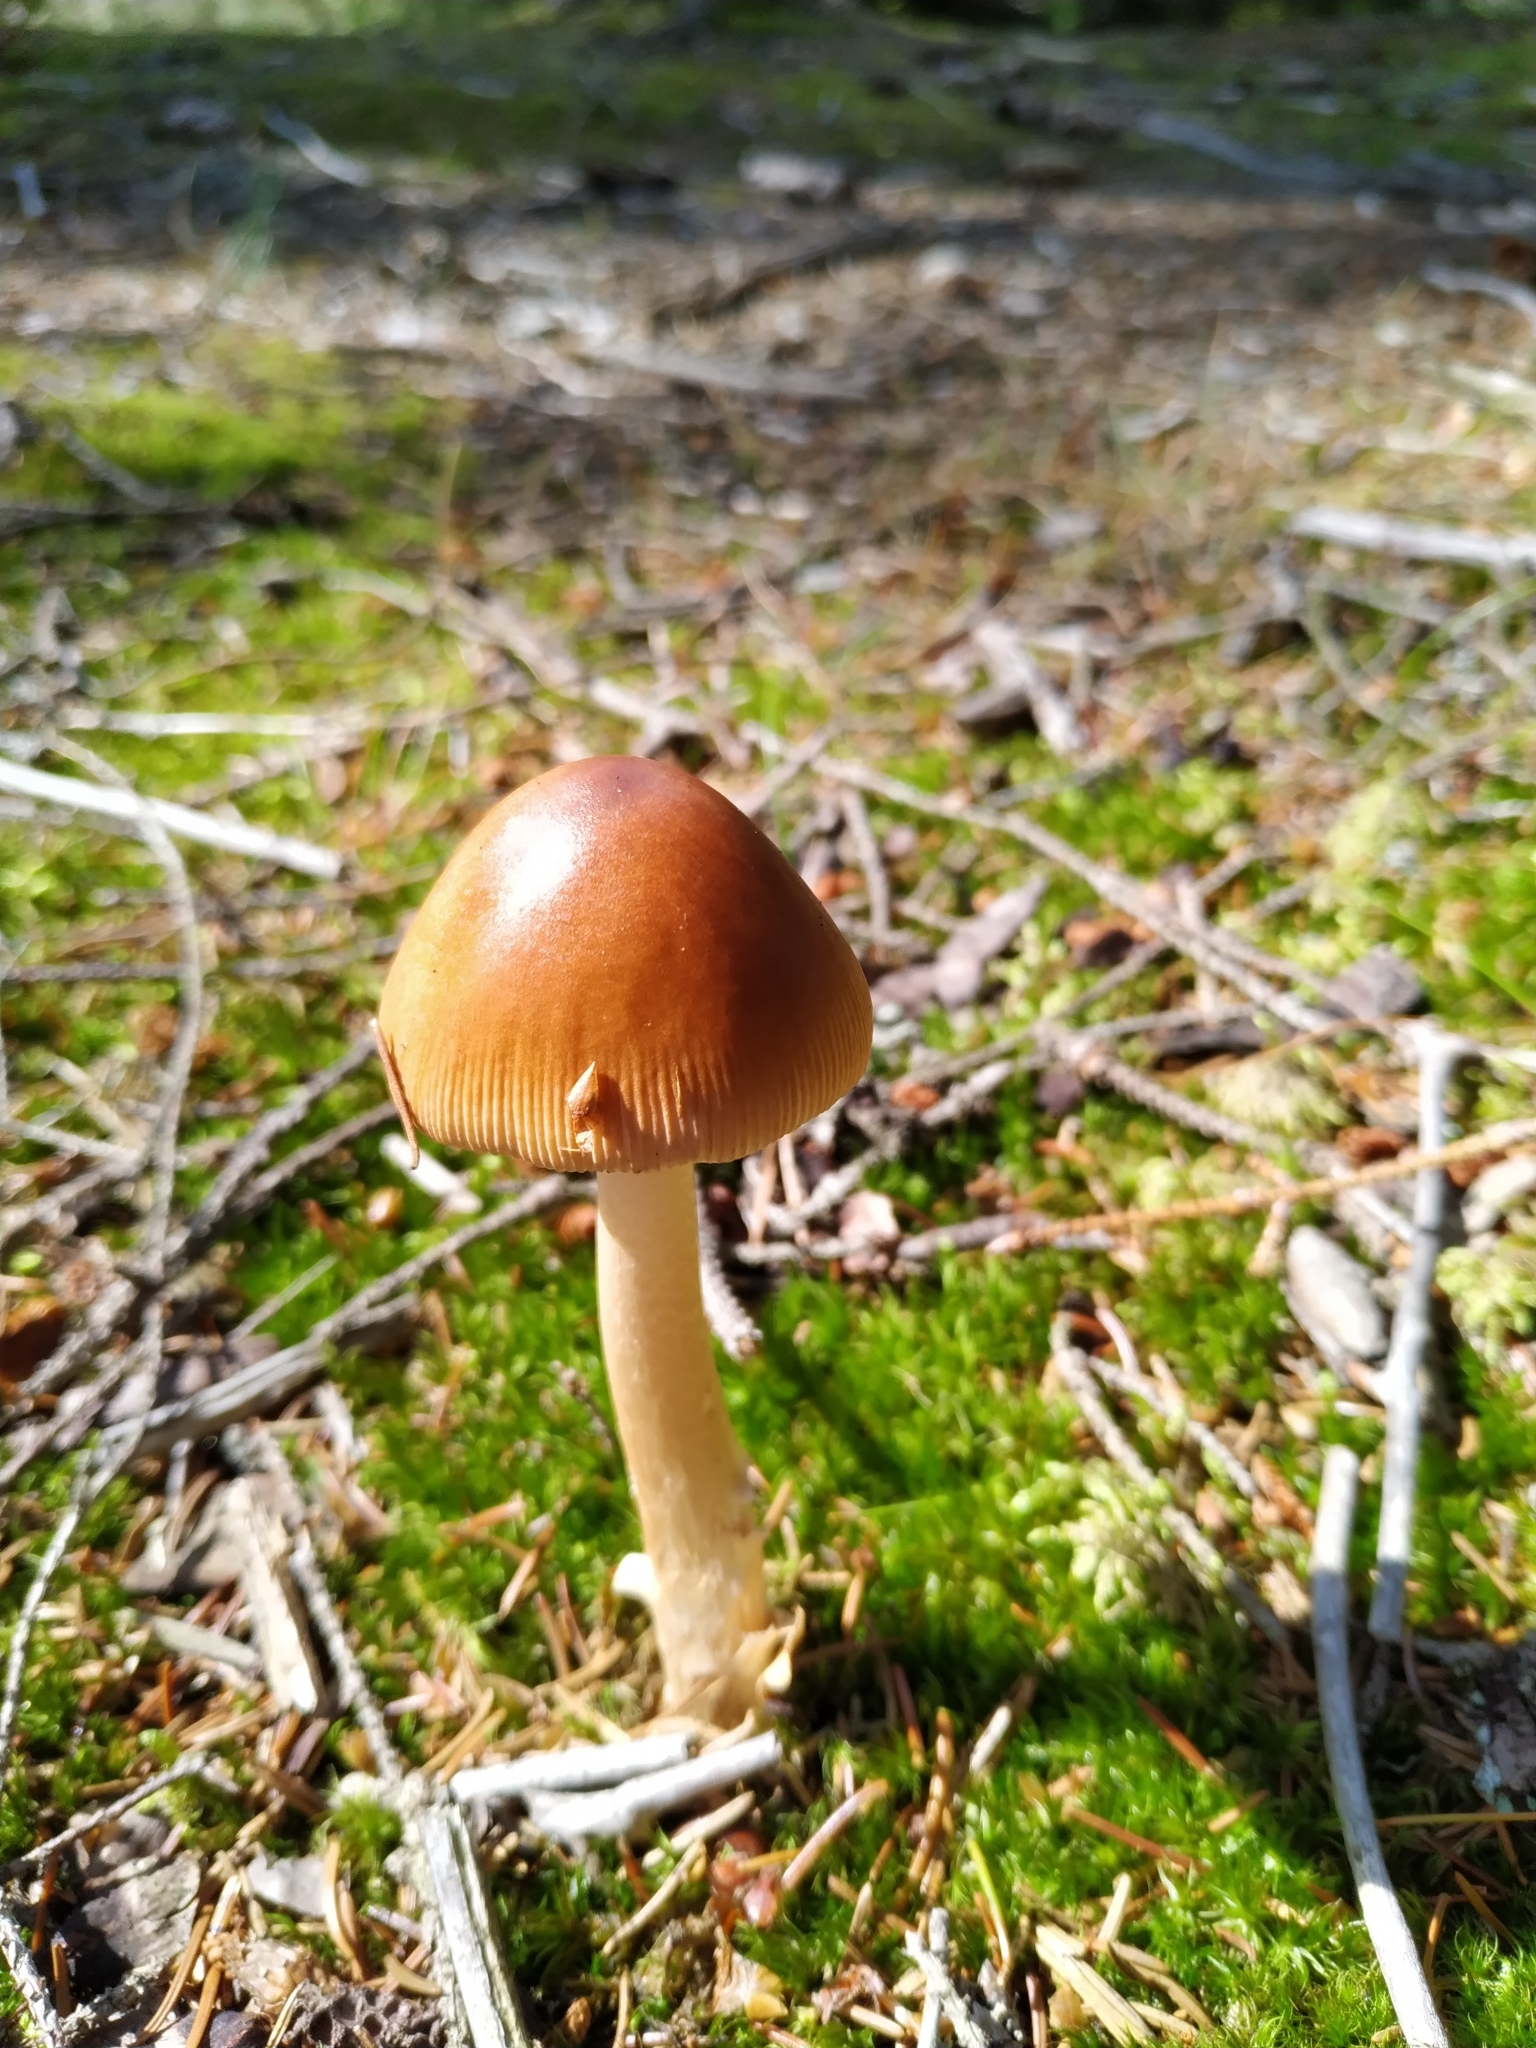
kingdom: Fungi
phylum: Basidiomycota
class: Agaricomycetes
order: Agaricales
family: Amanitaceae
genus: Amanita
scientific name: Amanita fulva
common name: Tawny grisette
